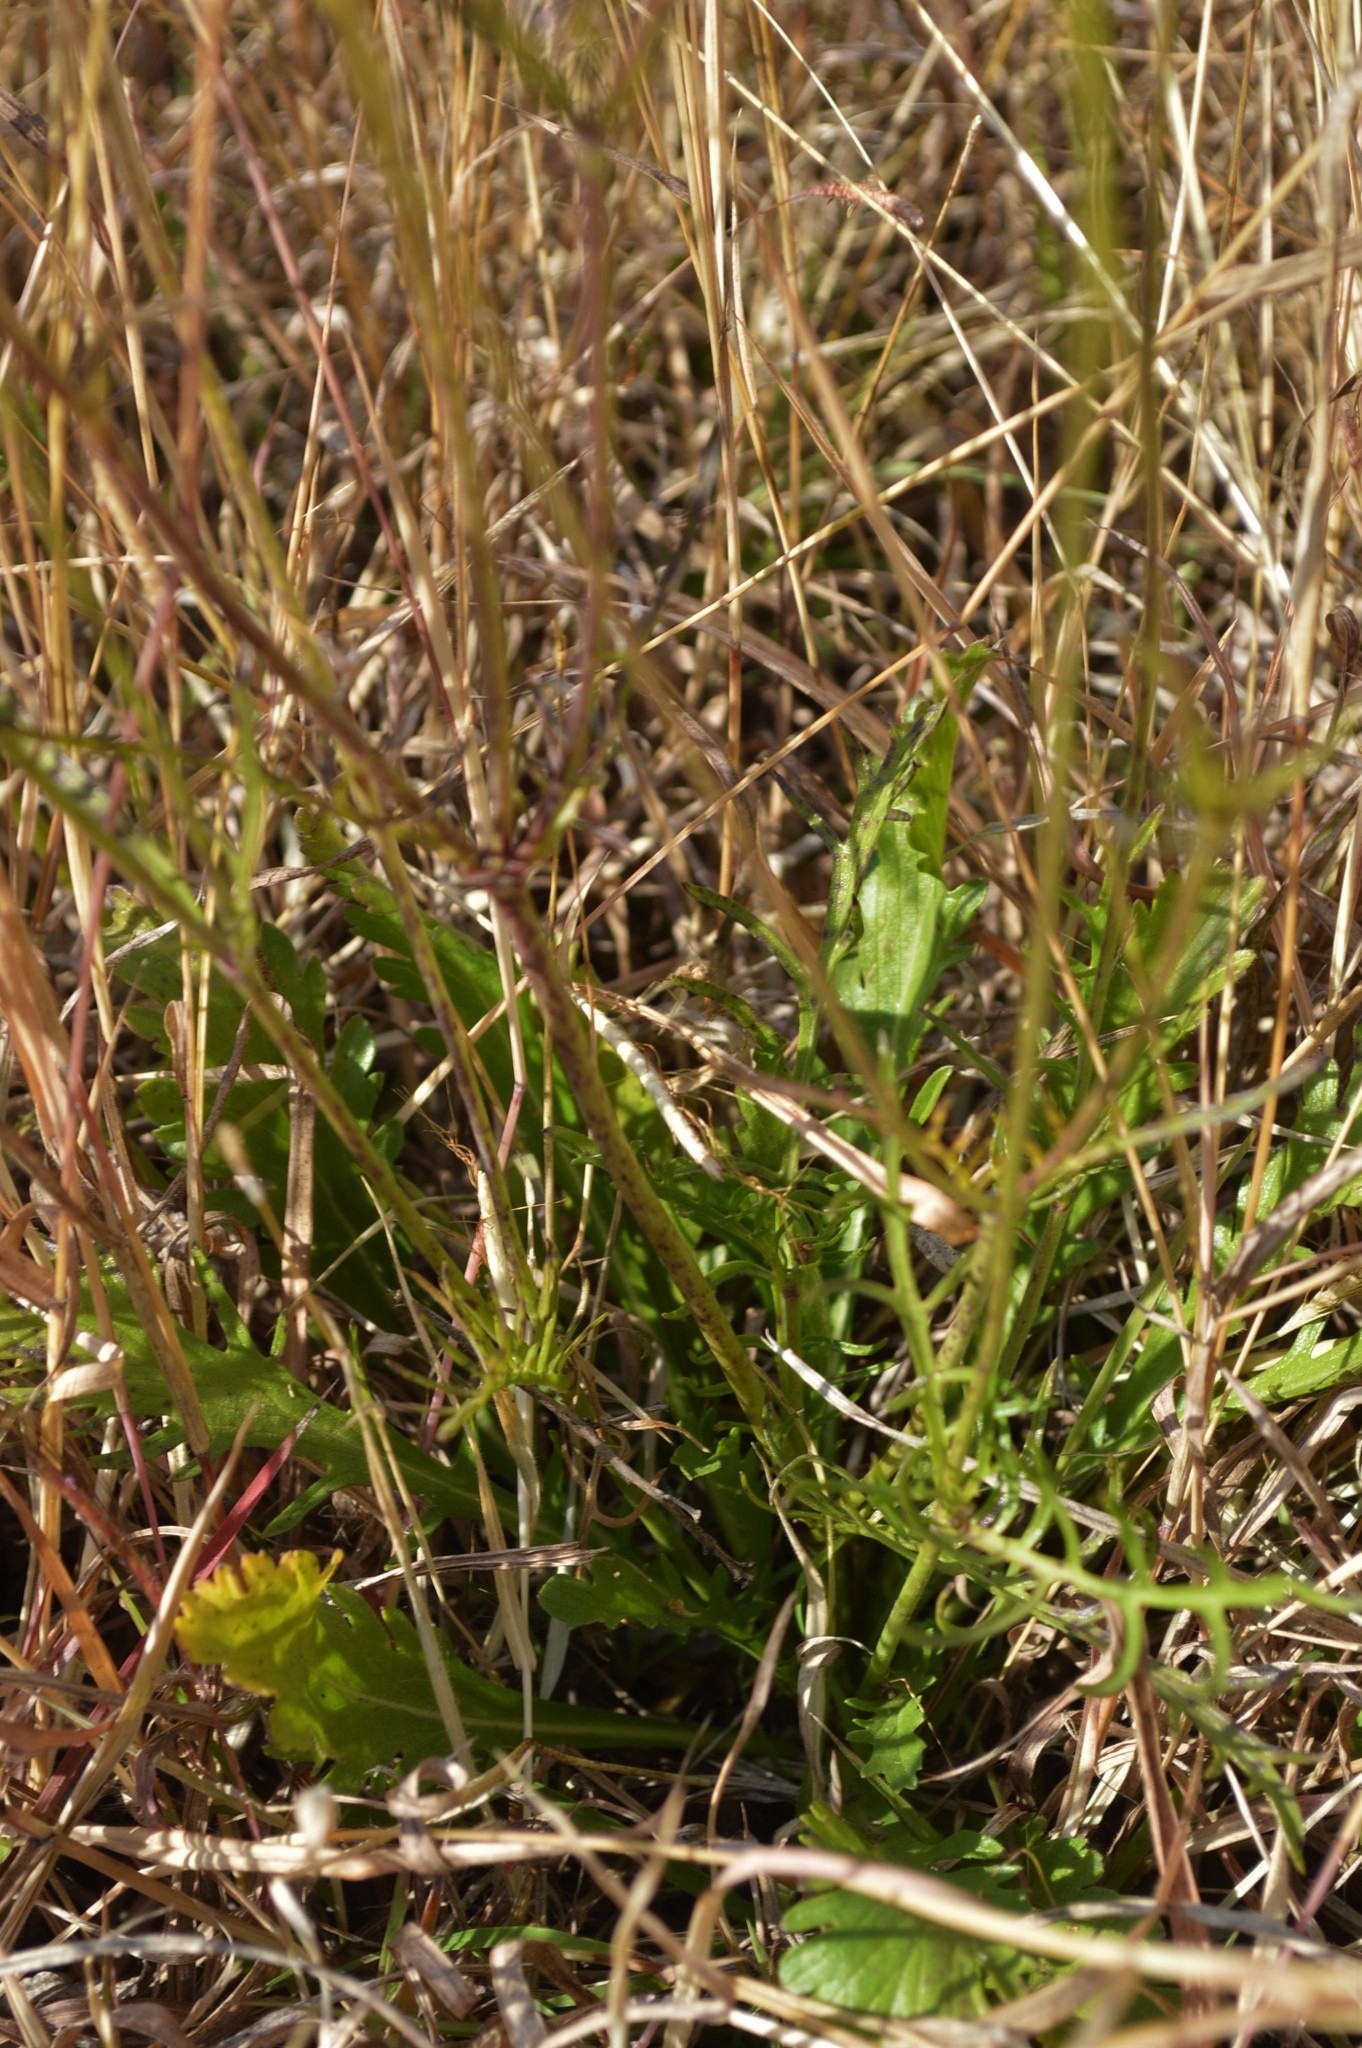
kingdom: Plantae
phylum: Tracheophyta
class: Magnoliopsida
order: Dipsacales
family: Caprifoliaceae
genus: Scabiosa
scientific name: Scabiosa columbaria
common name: Small scabious
